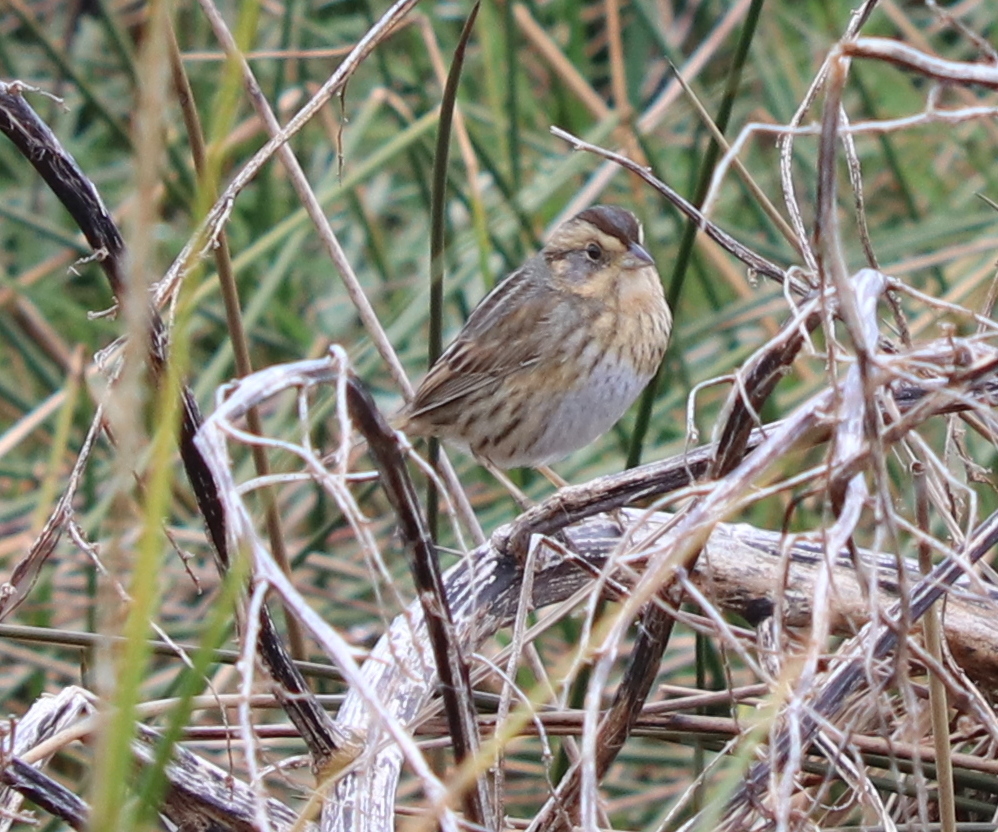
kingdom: Animalia
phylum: Chordata
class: Aves
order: Passeriformes
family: Passerellidae
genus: Ammospiza
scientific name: Ammospiza nelsoni
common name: Nelson's sparrow
